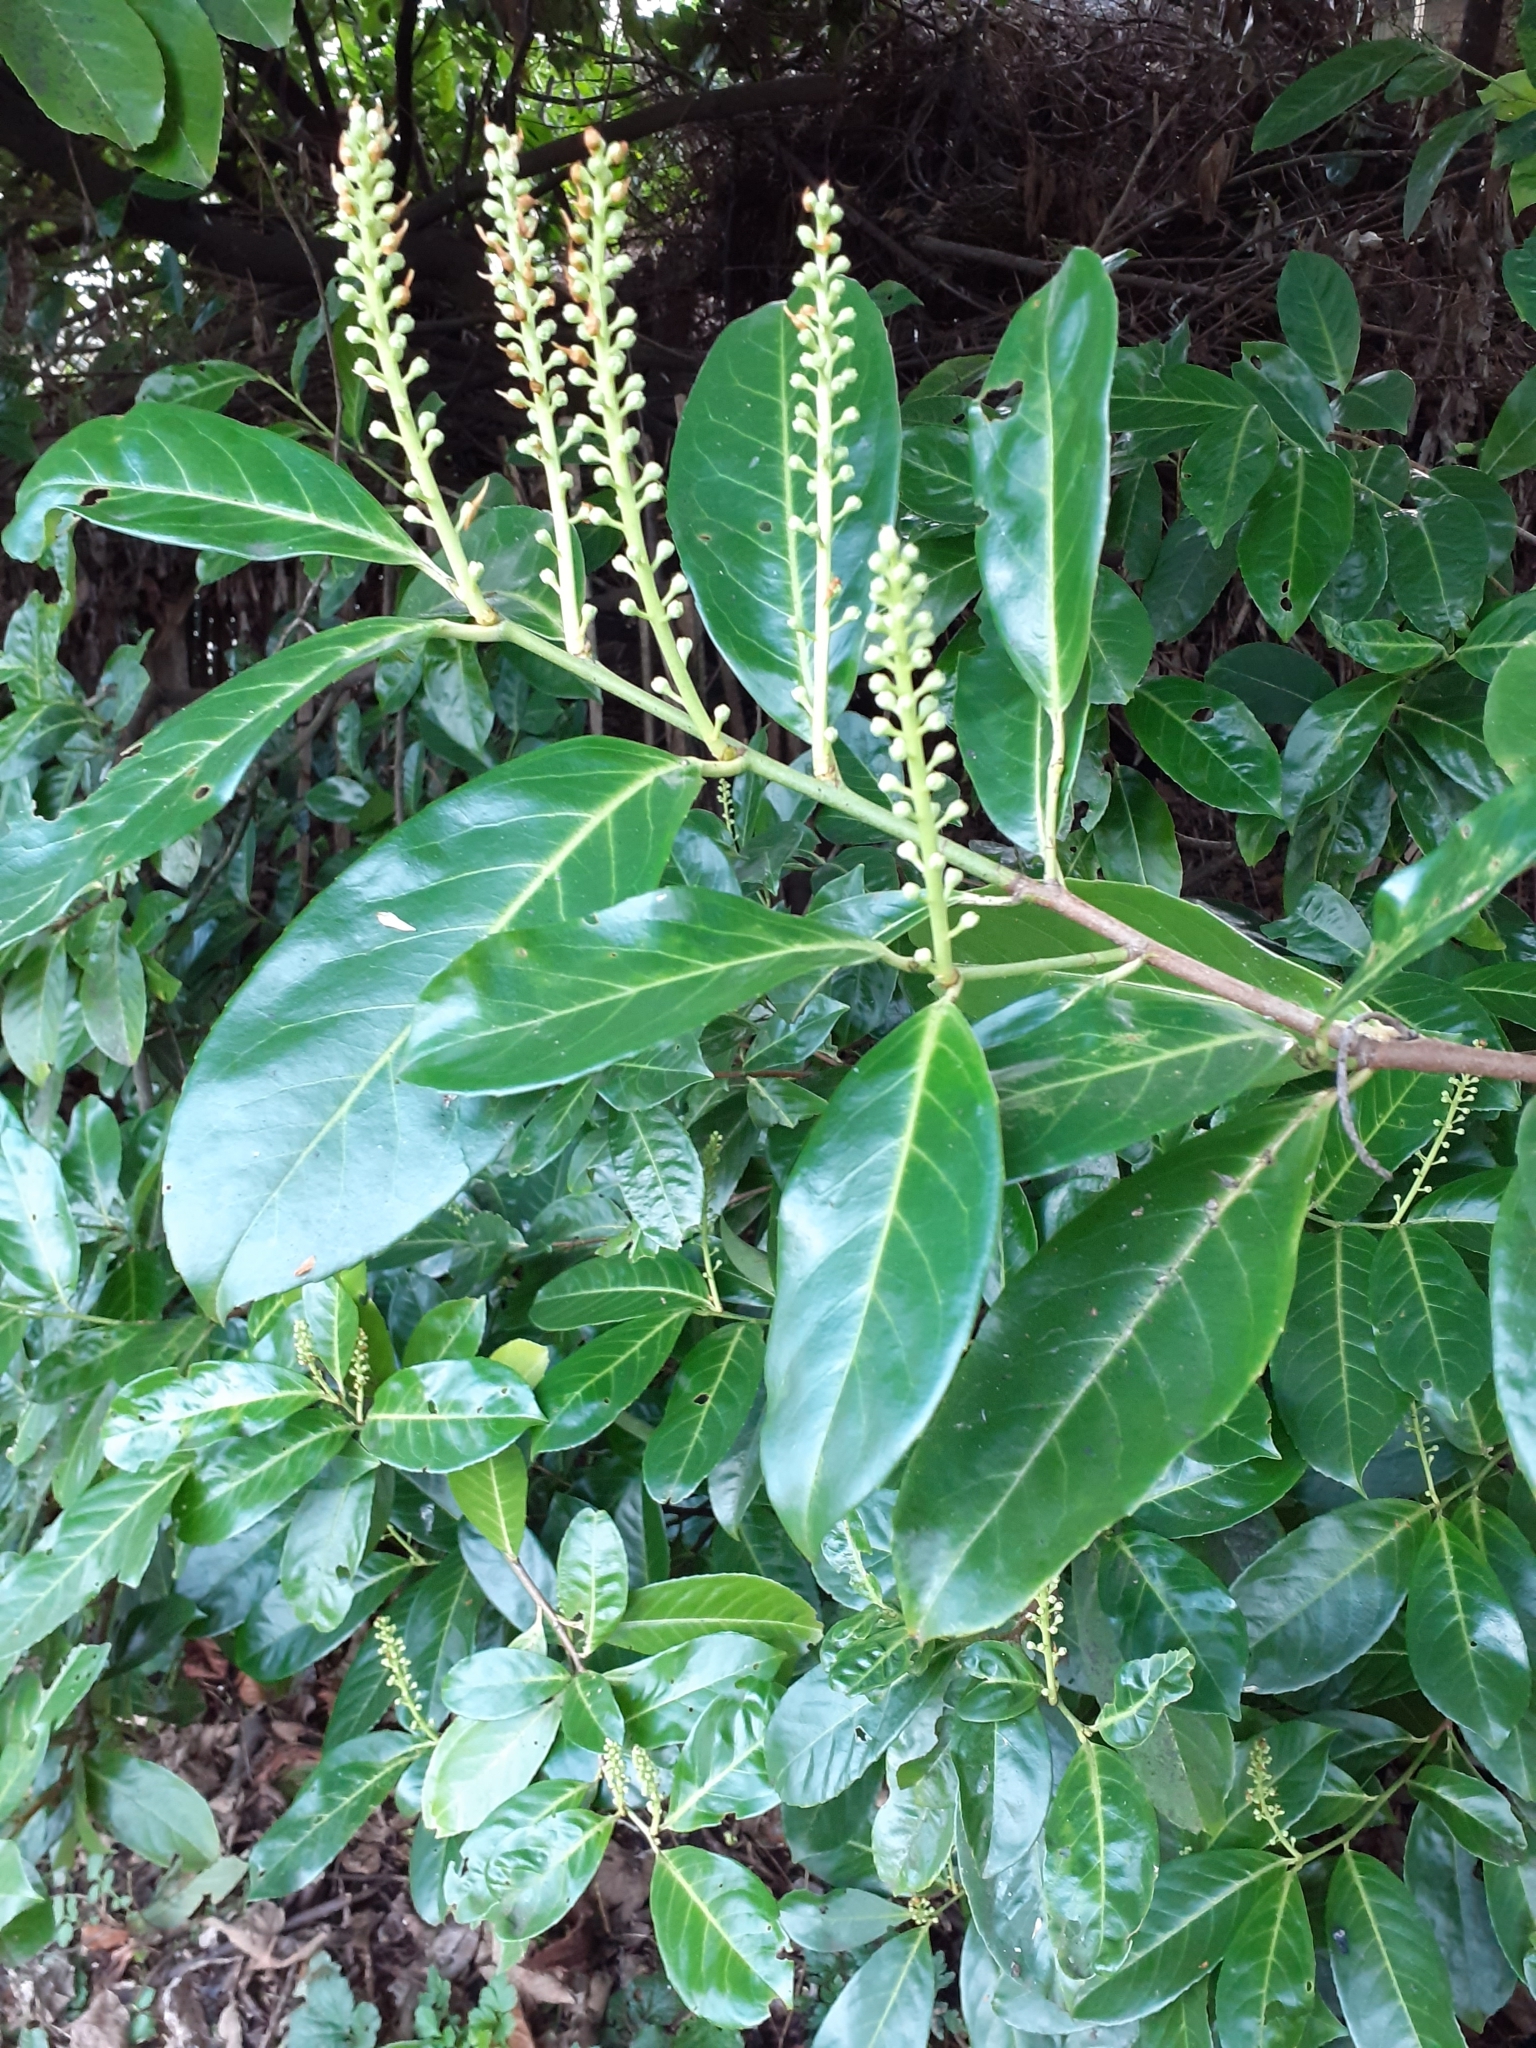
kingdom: Plantae
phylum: Tracheophyta
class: Magnoliopsida
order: Rosales
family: Rosaceae
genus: Prunus
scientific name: Prunus laurocerasus
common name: Cherry laurel
